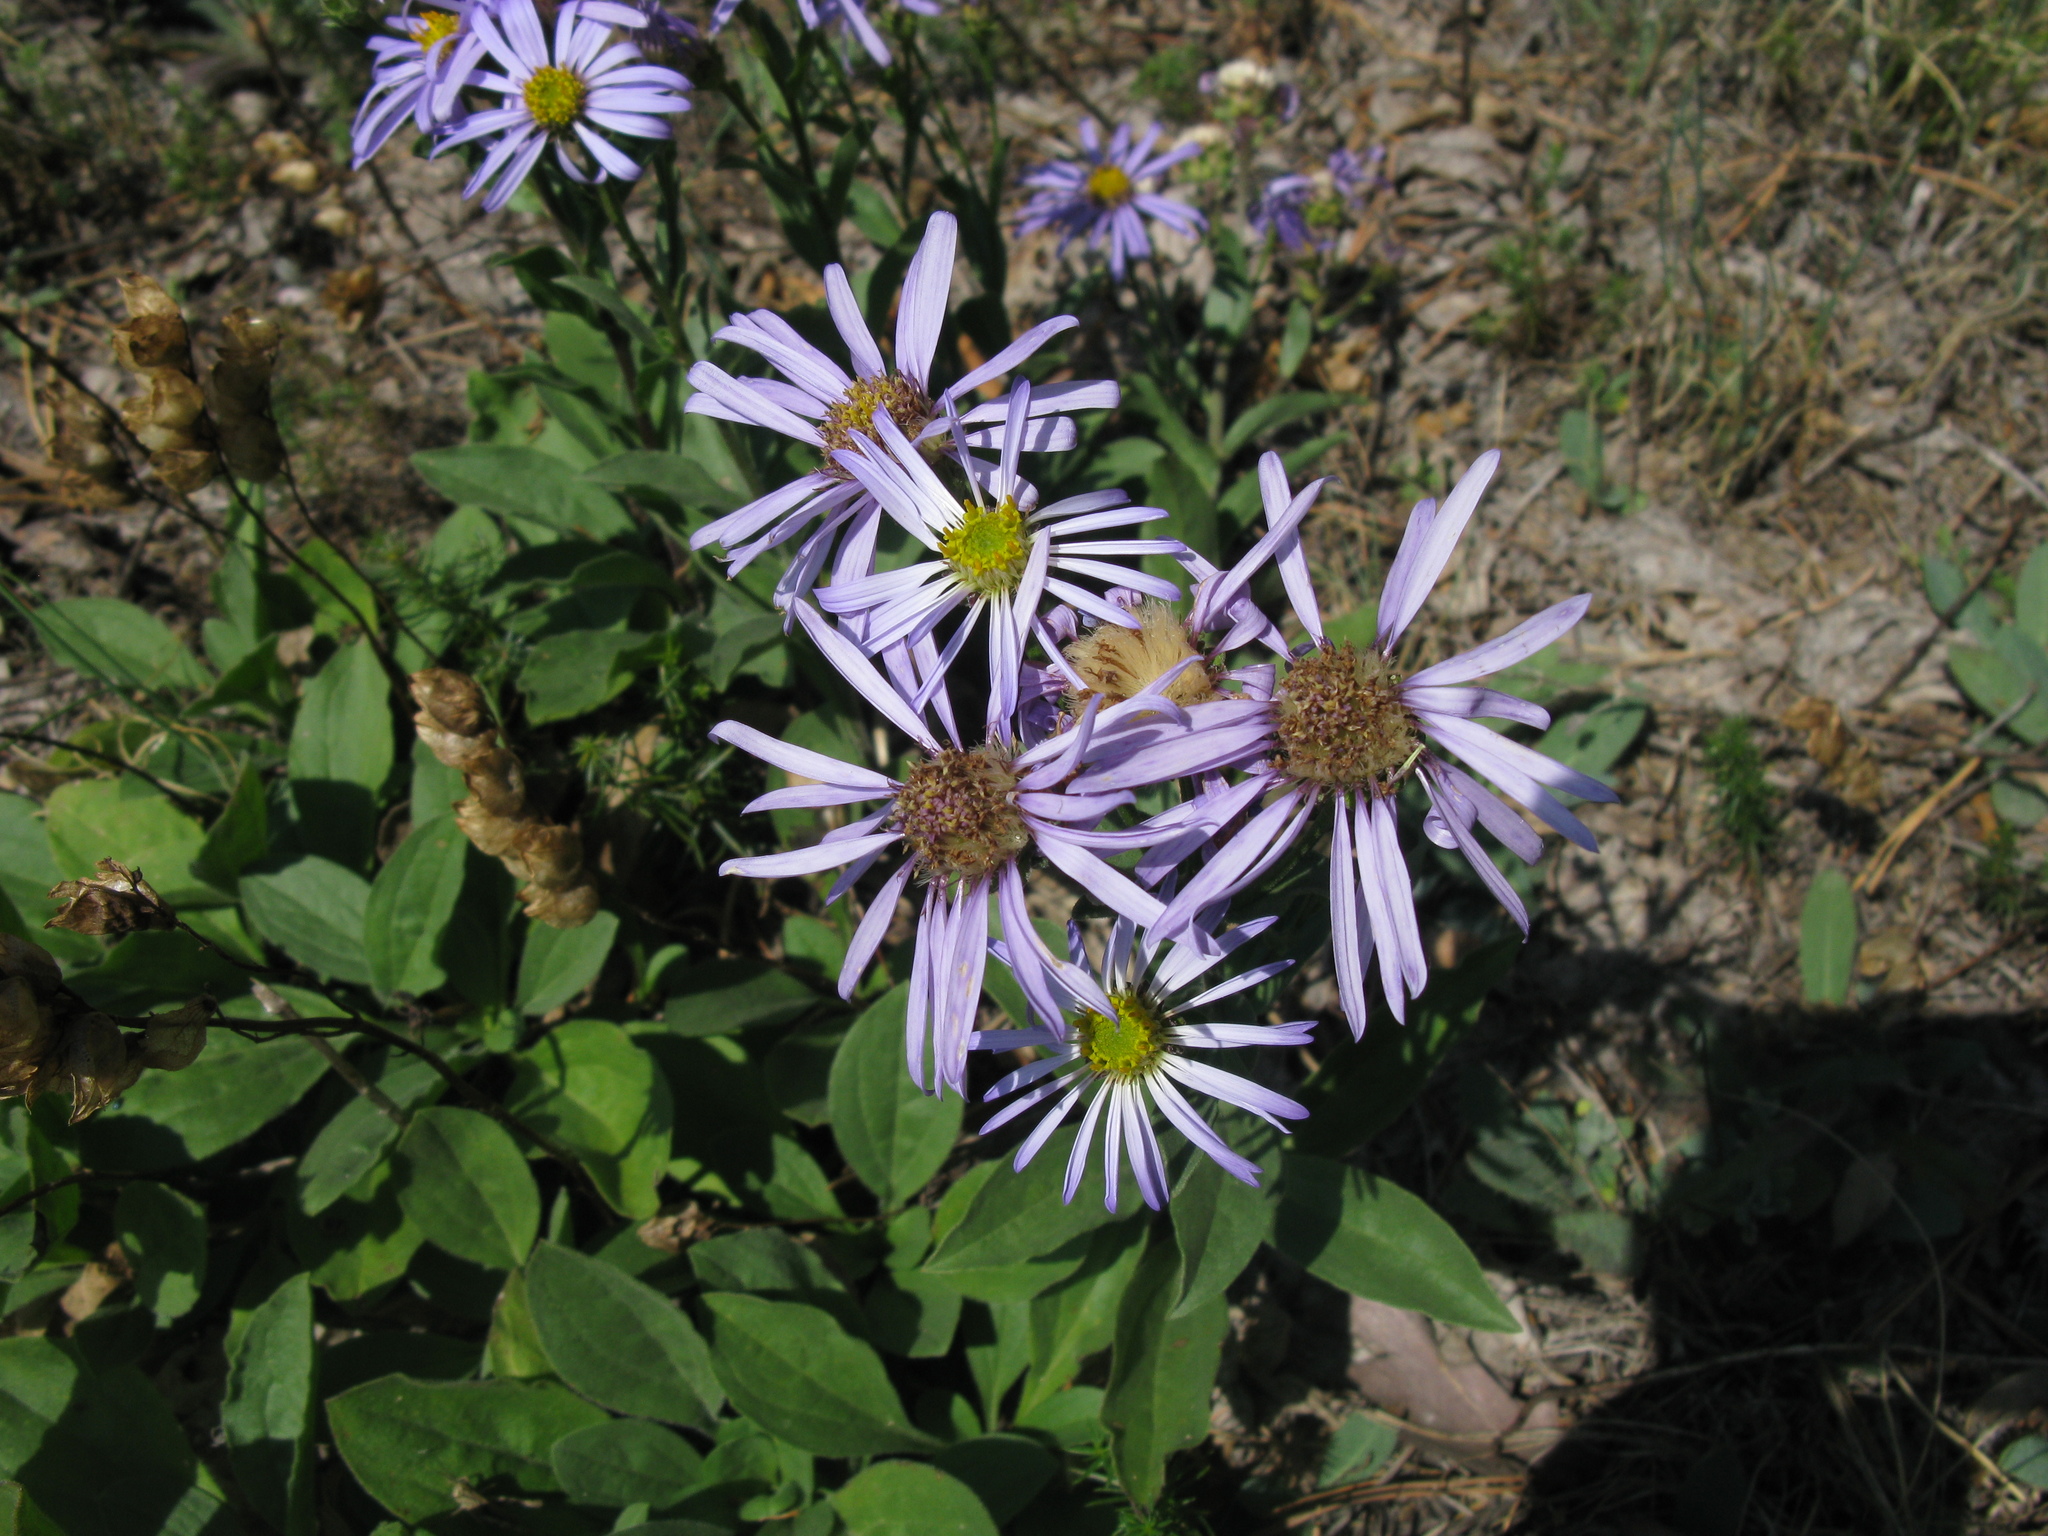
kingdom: Plantae
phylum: Tracheophyta
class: Magnoliopsida
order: Asterales
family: Asteraceae
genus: Aster
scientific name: Aster amellus
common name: European michaelmas daisy
